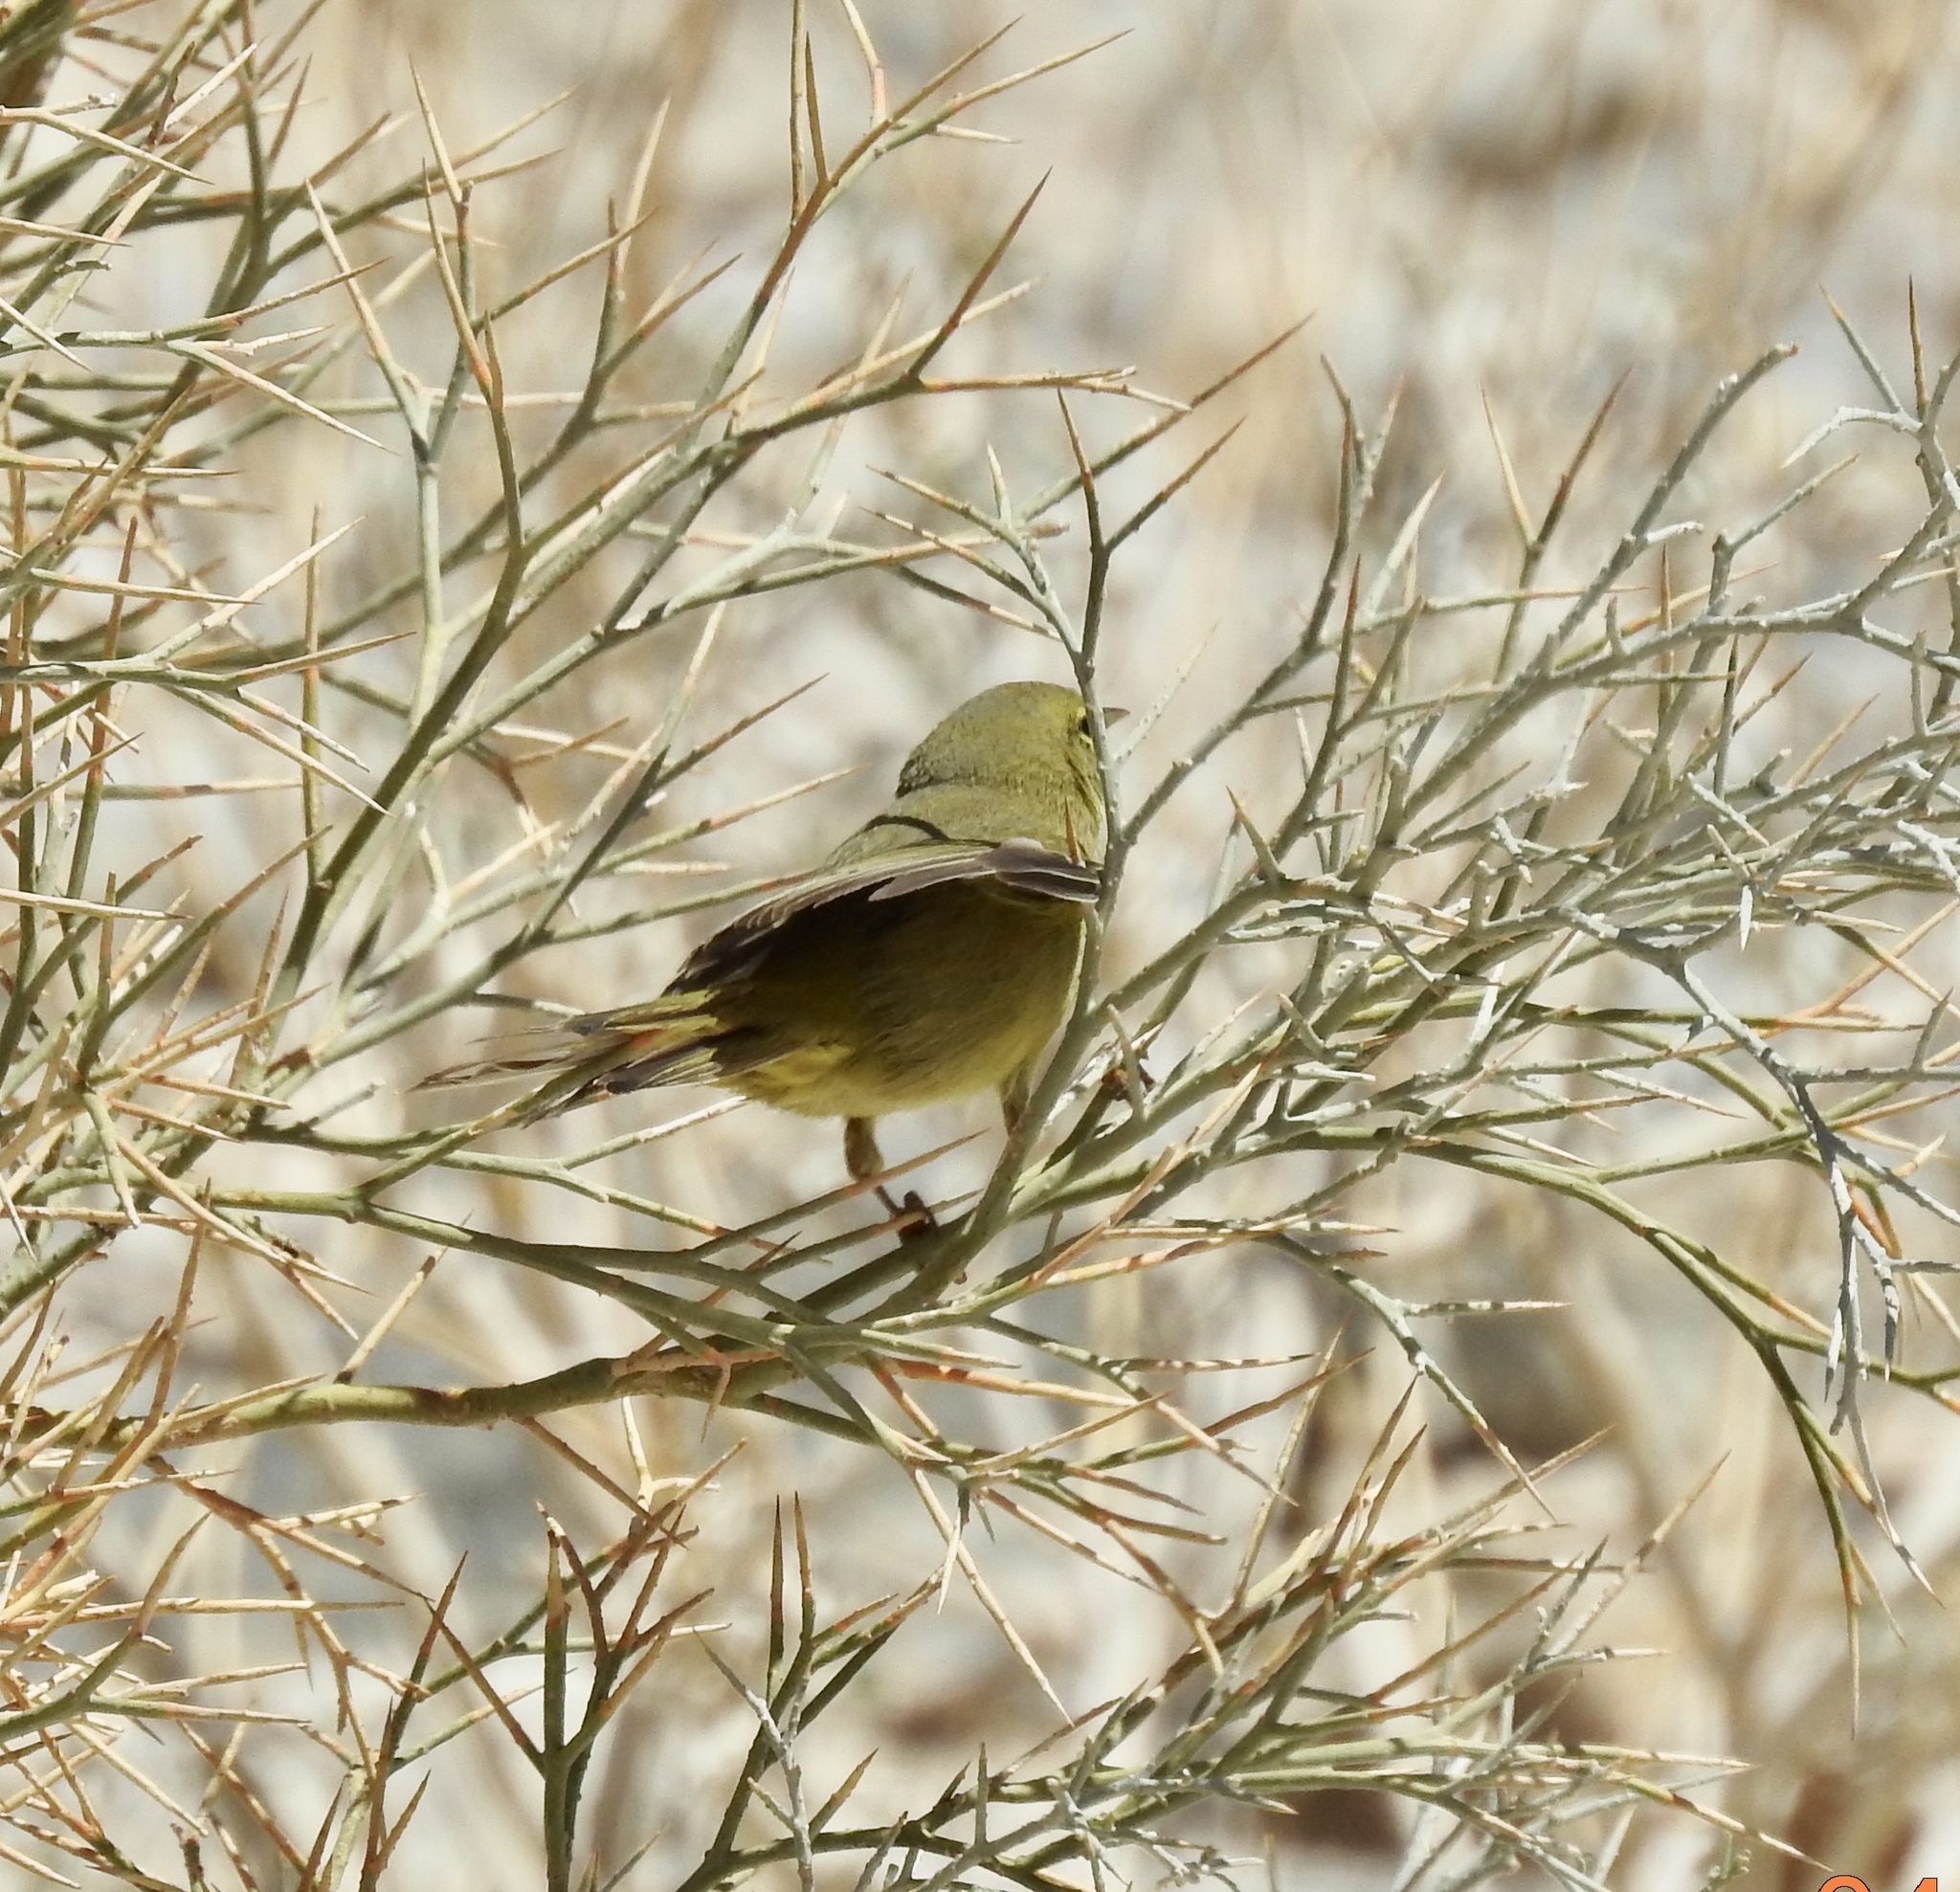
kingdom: Animalia
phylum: Chordata
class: Aves
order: Passeriformes
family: Parulidae
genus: Leiothlypis
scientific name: Leiothlypis celata
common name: Orange-crowned warbler
